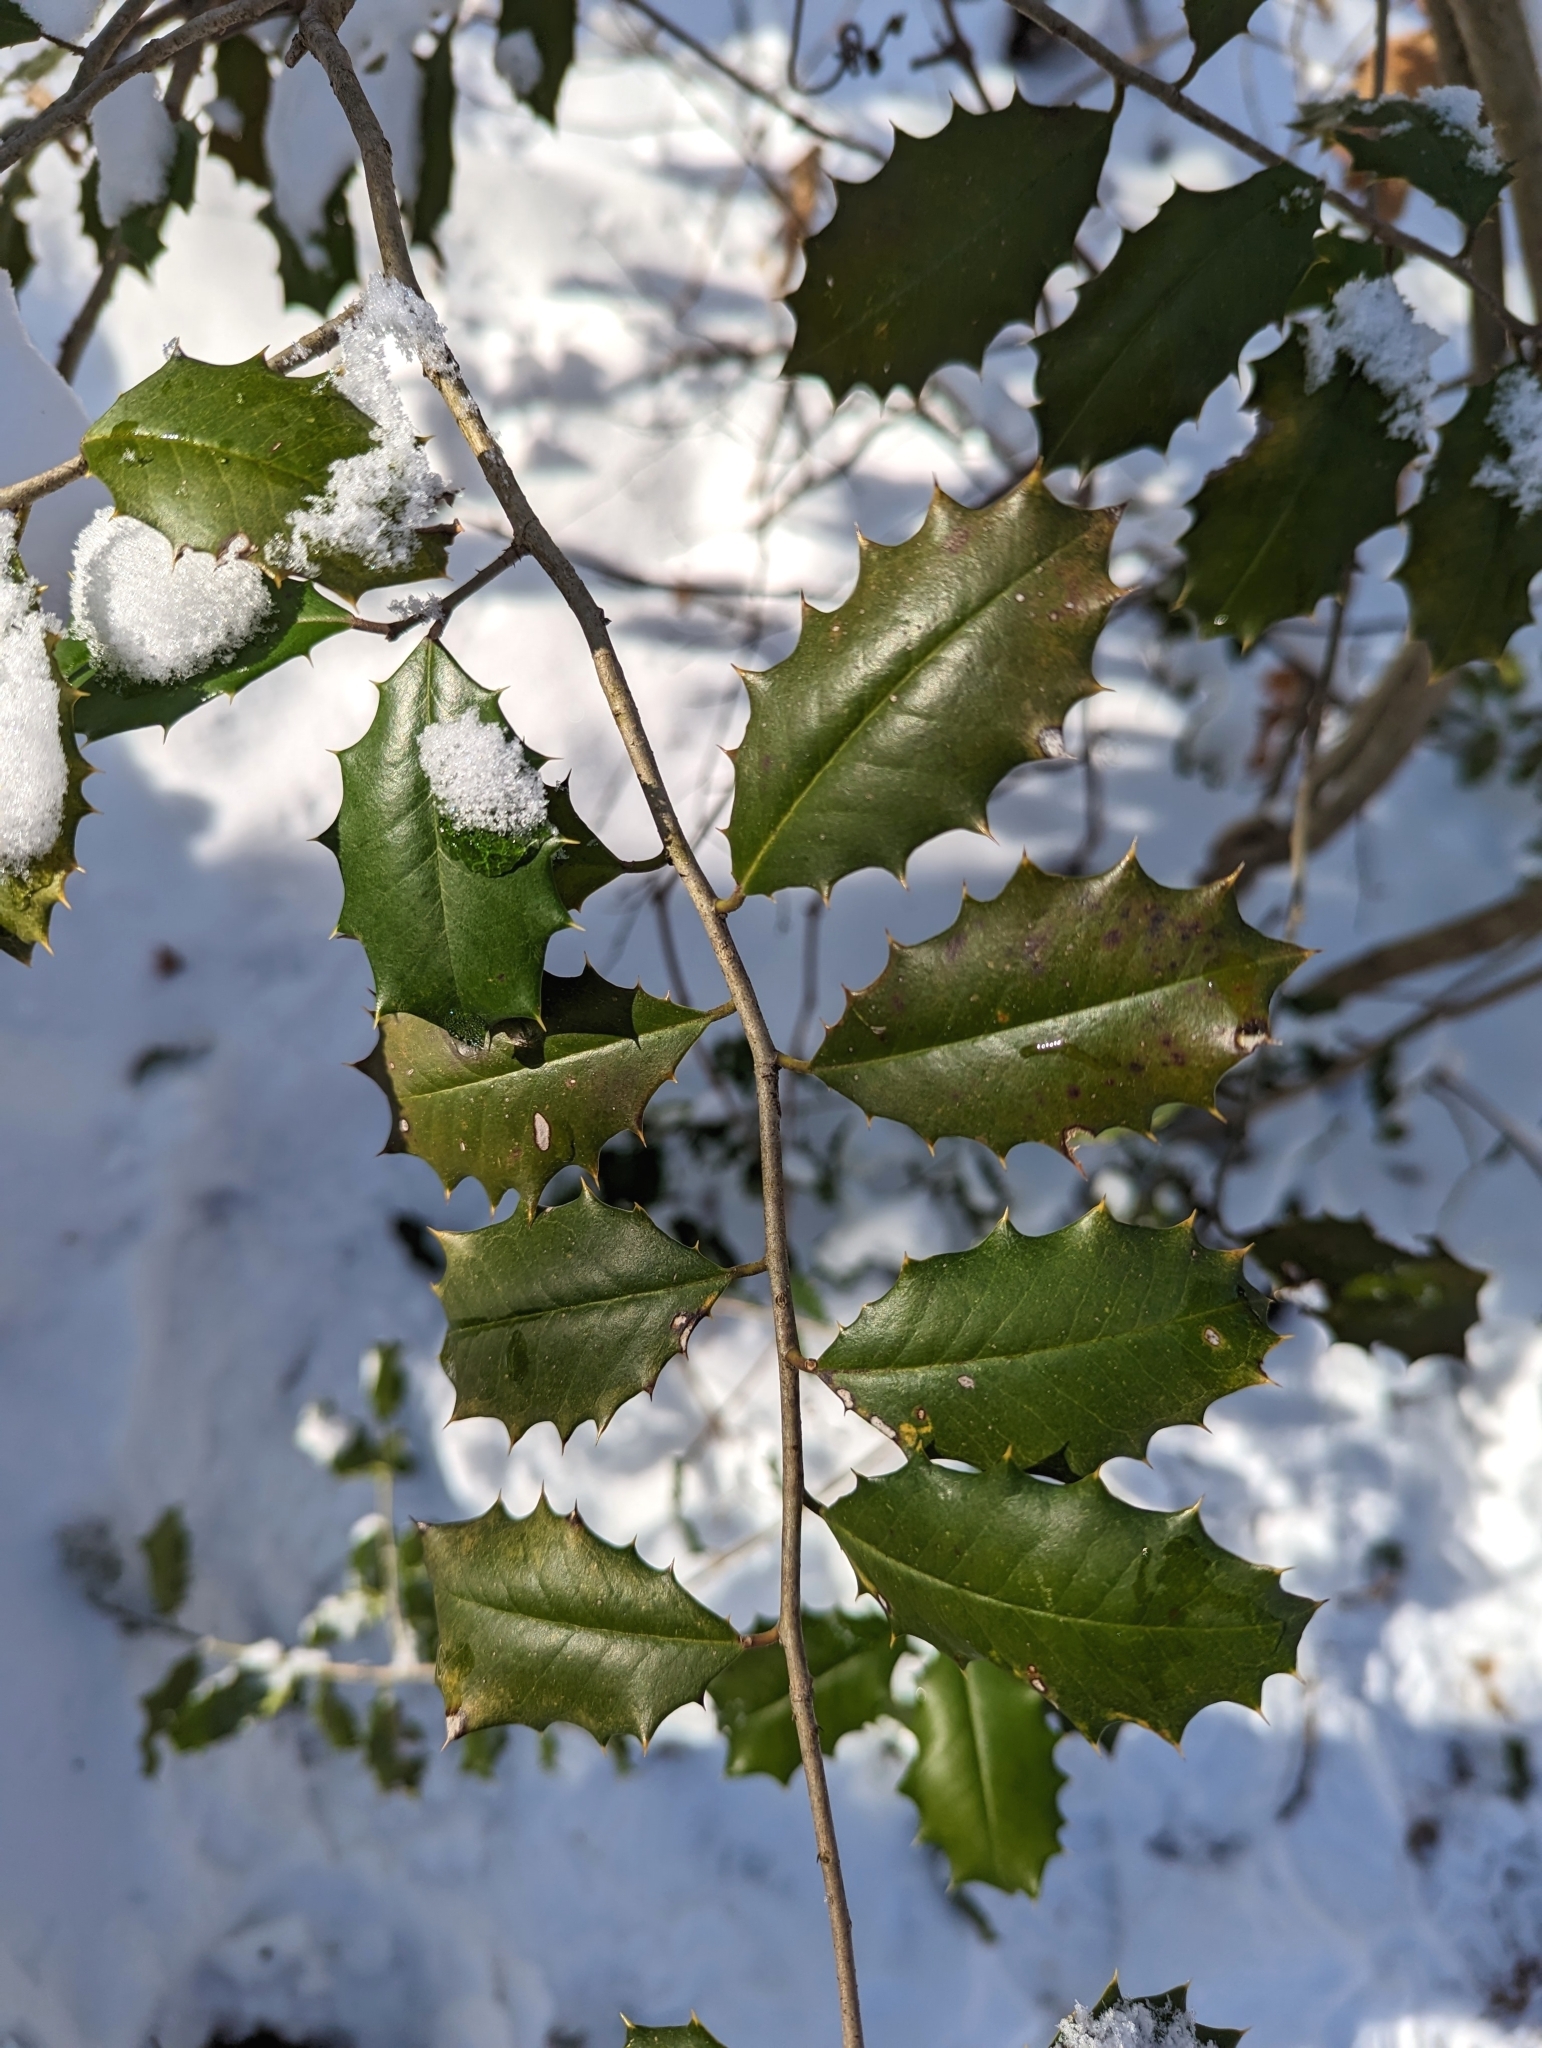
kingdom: Plantae
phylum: Tracheophyta
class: Magnoliopsida
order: Aquifoliales
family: Aquifoliaceae
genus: Ilex
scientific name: Ilex opaca
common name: American holly
